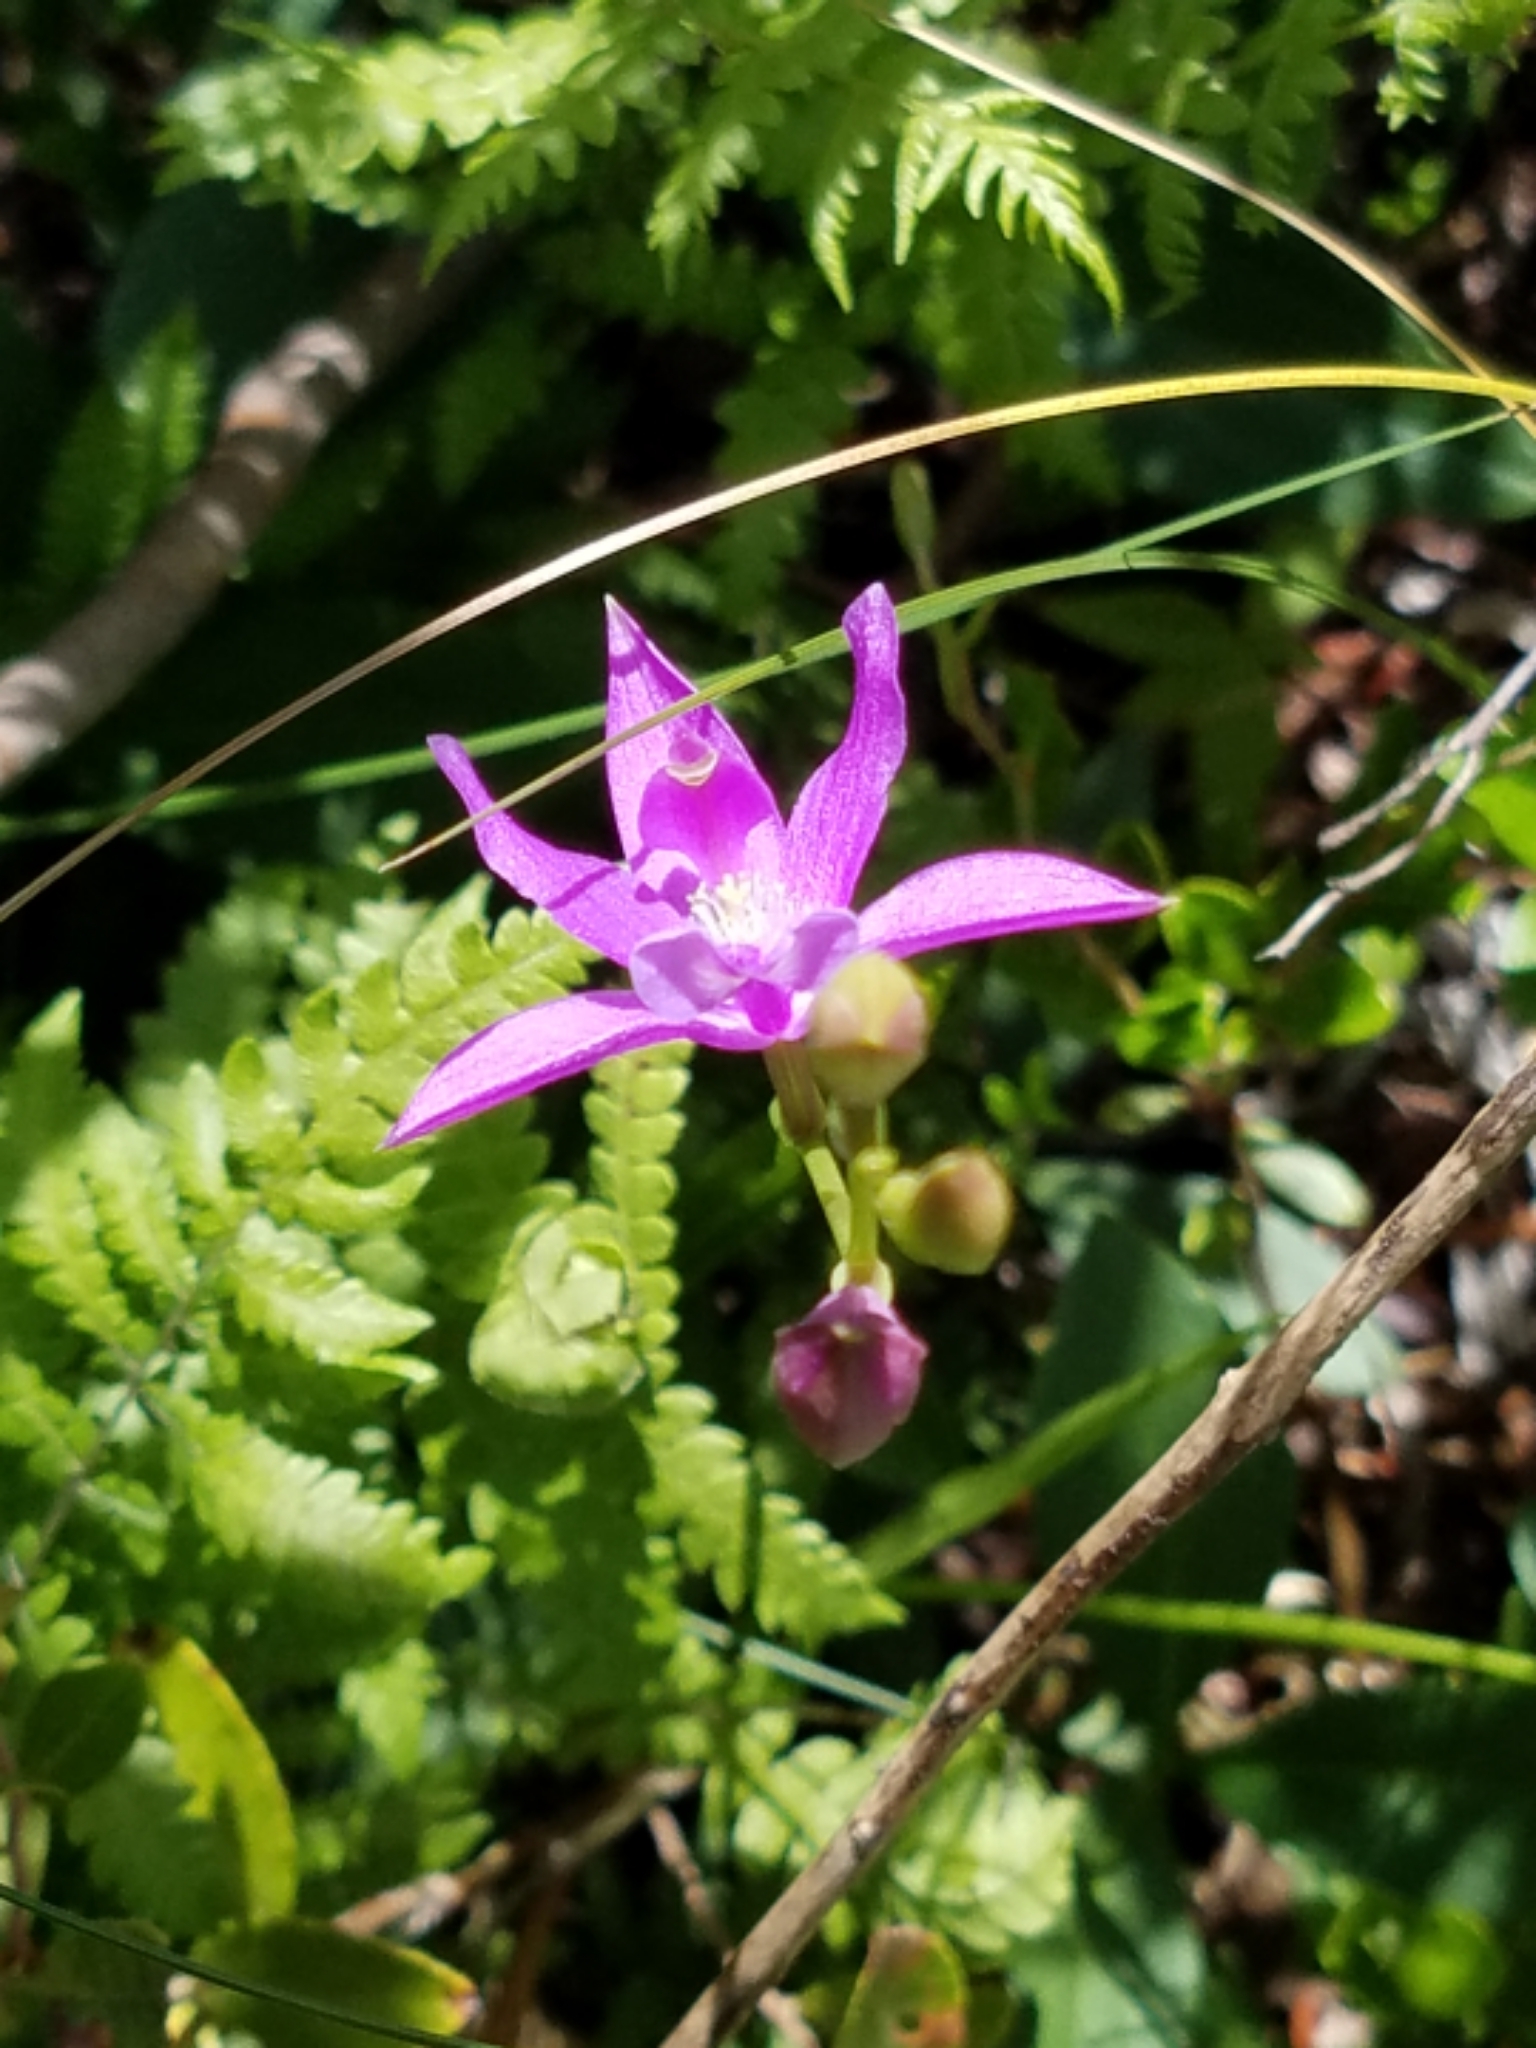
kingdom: Plantae
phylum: Tracheophyta
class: Liliopsida
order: Asparagales
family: Orchidaceae
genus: Calopogon
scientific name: Calopogon tuberosus
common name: Grass-pink
